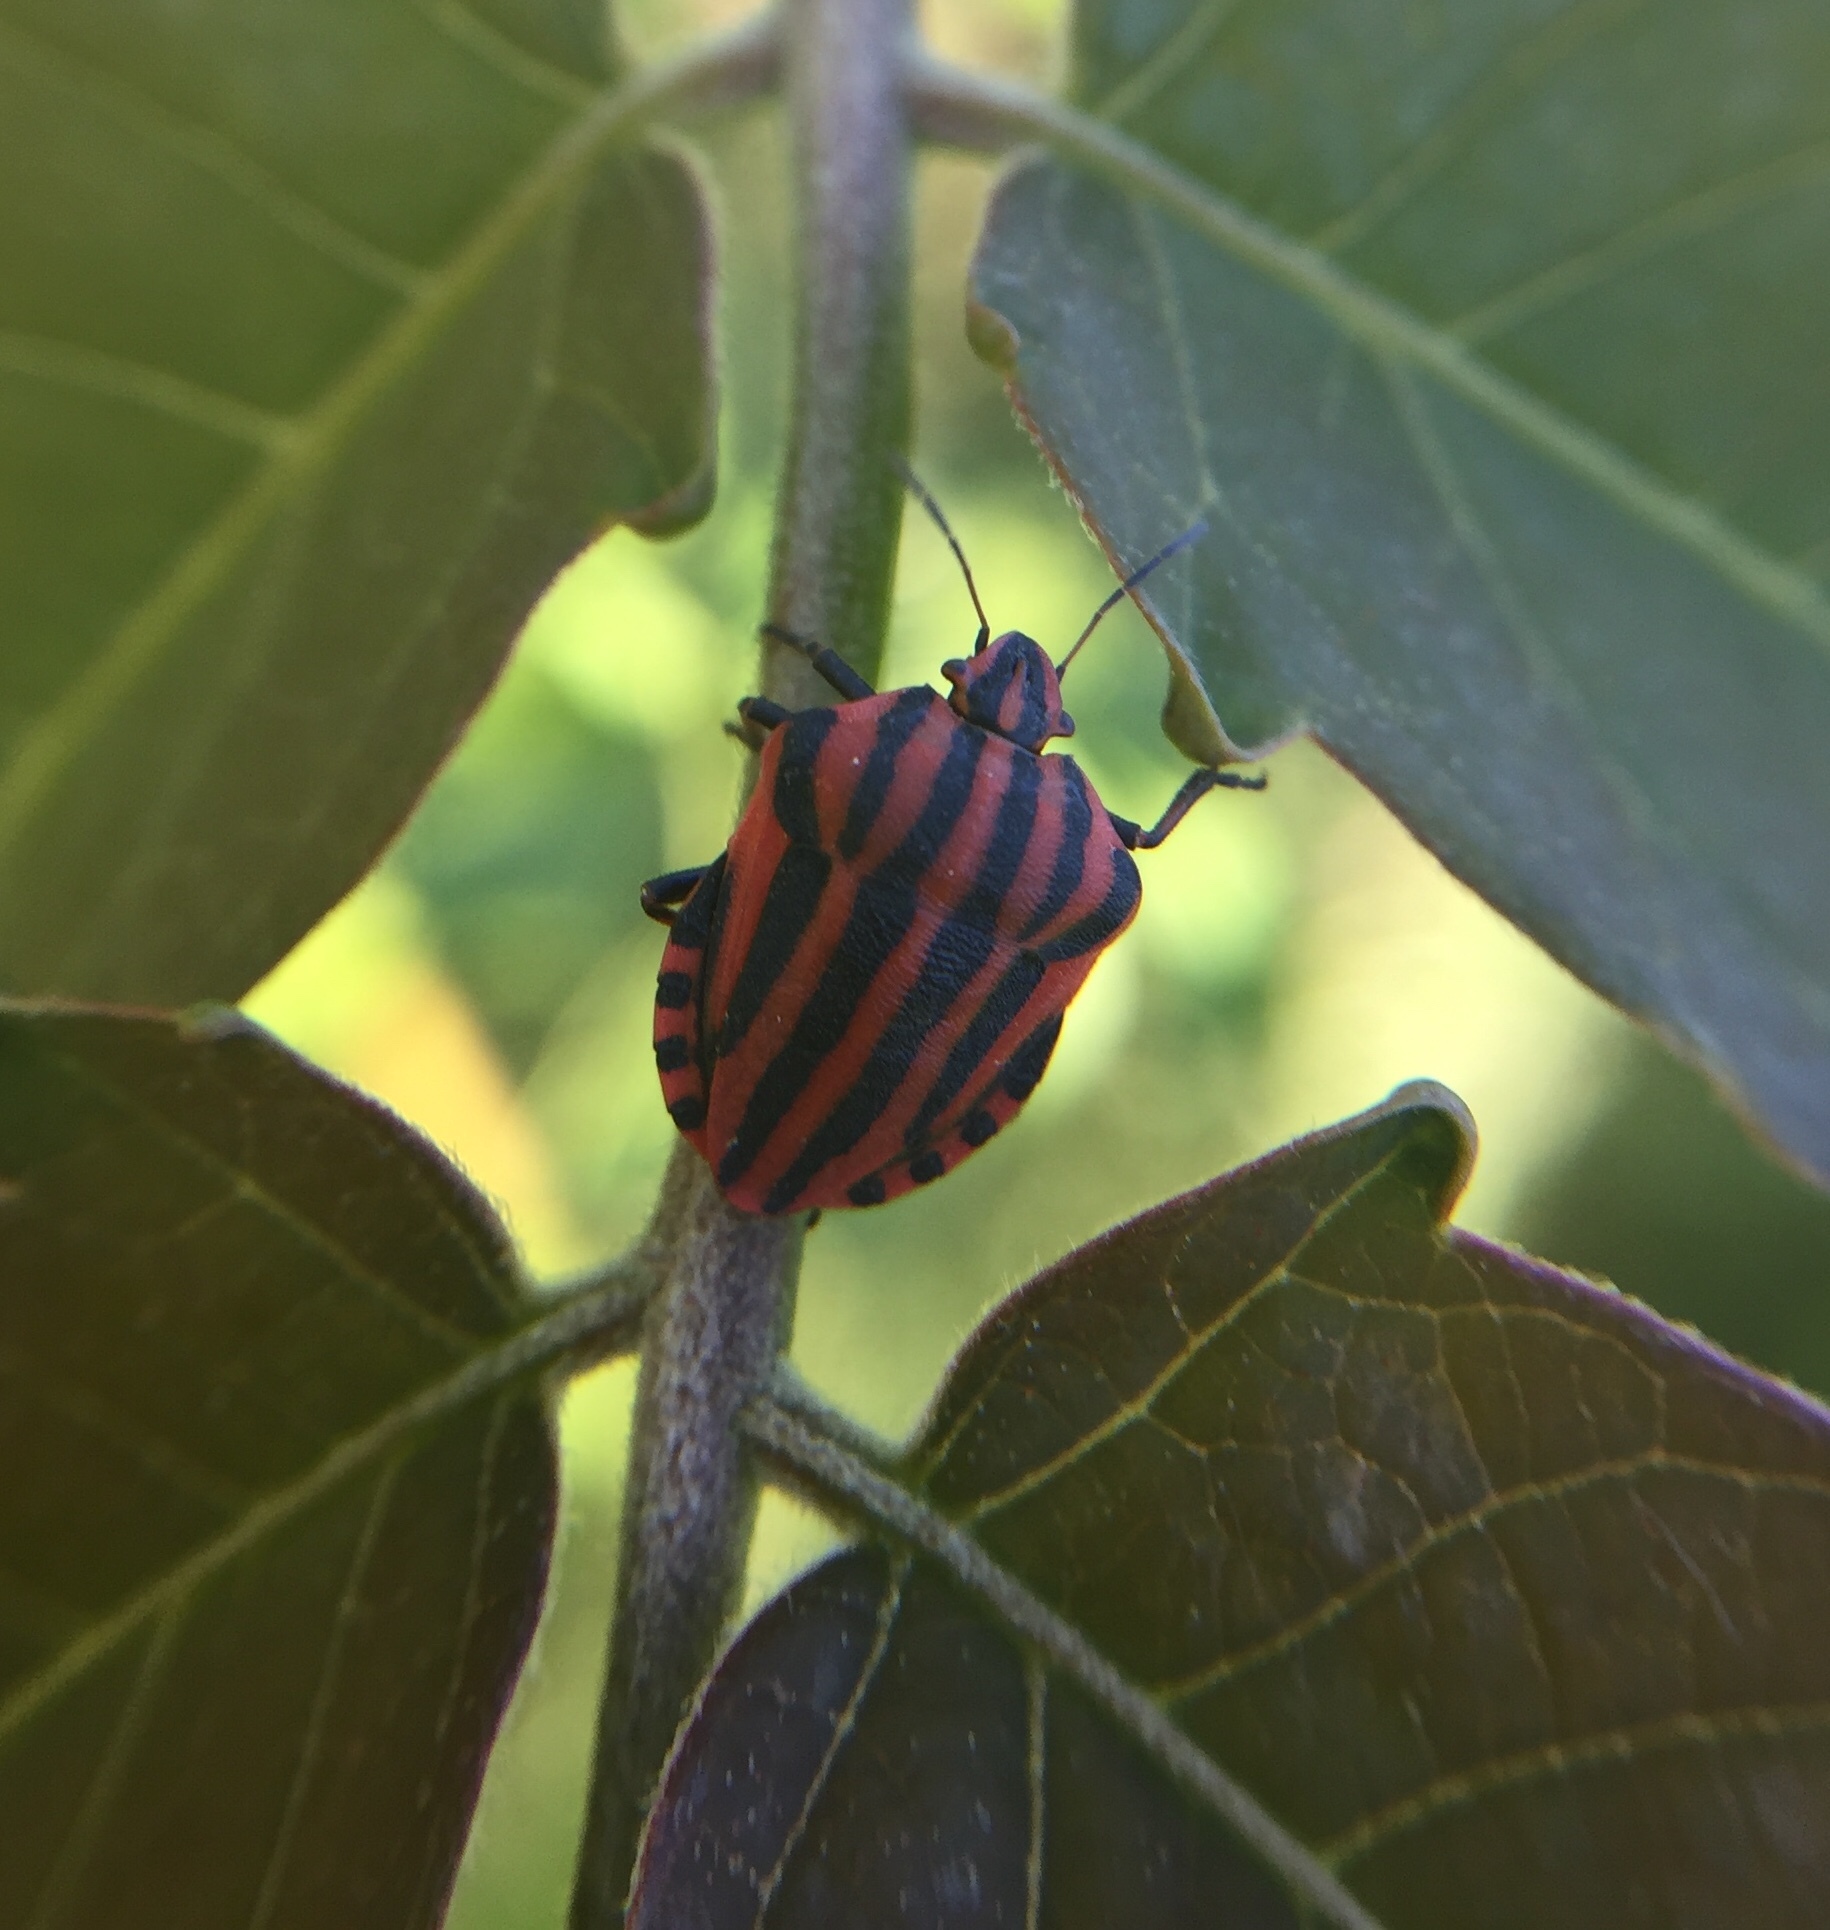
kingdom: Animalia
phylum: Arthropoda
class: Insecta
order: Hemiptera
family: Pentatomidae
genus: Graphosoma
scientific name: Graphosoma italicum
